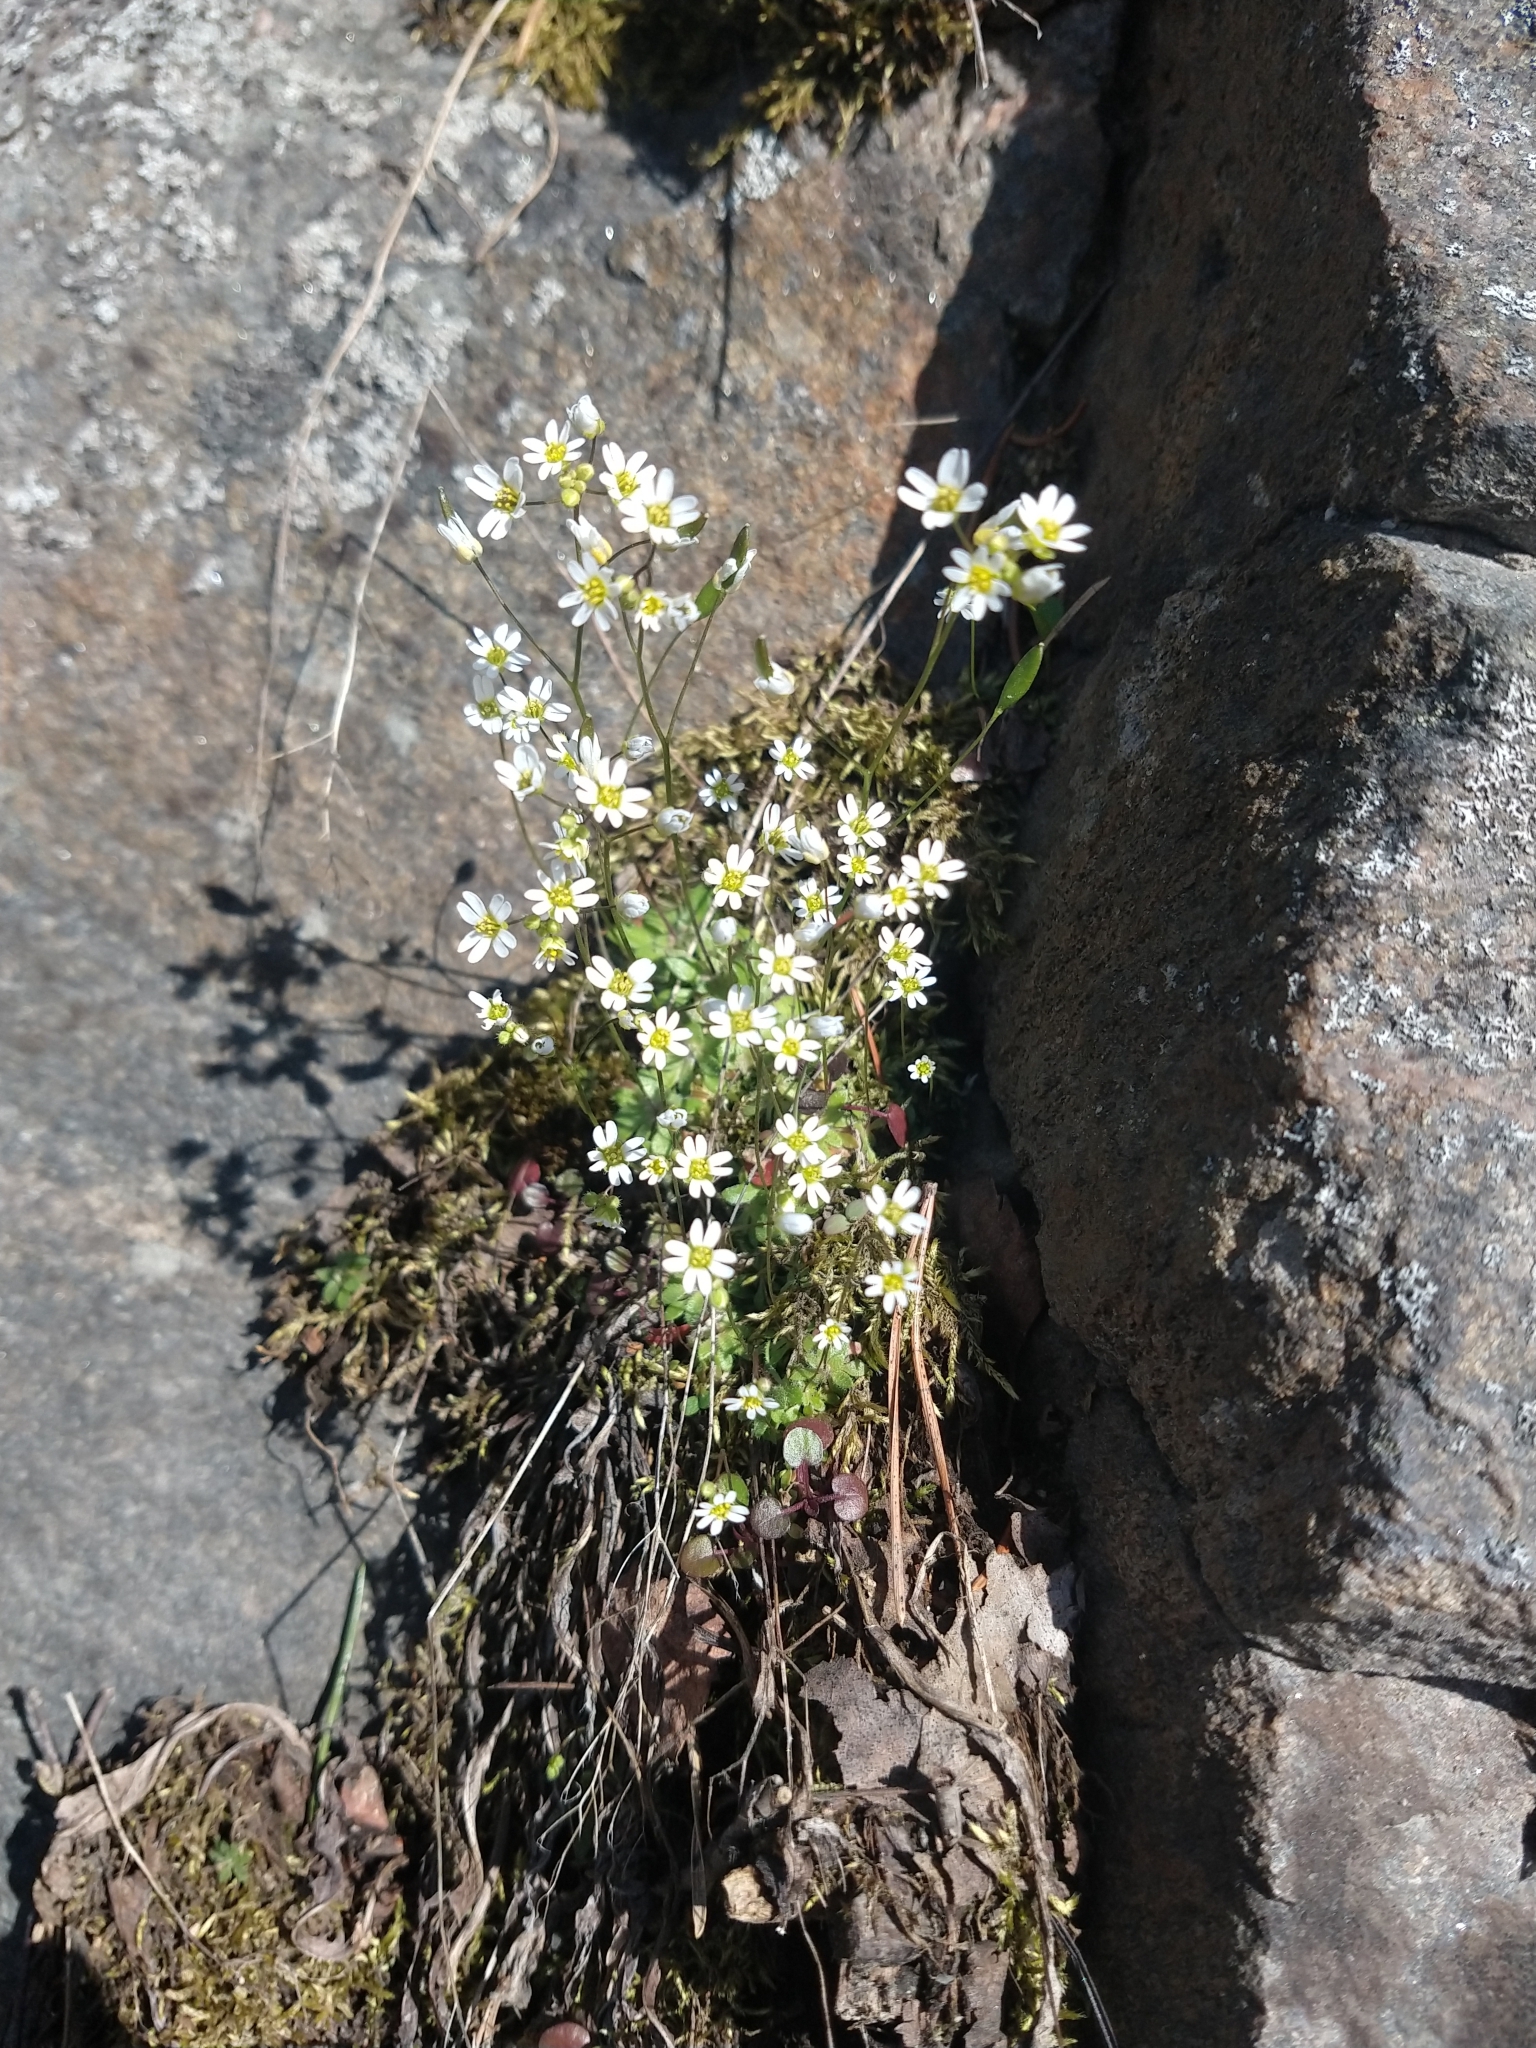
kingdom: Plantae
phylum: Tracheophyta
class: Magnoliopsida
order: Brassicales
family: Brassicaceae
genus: Draba
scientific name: Draba verna
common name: Spring draba
